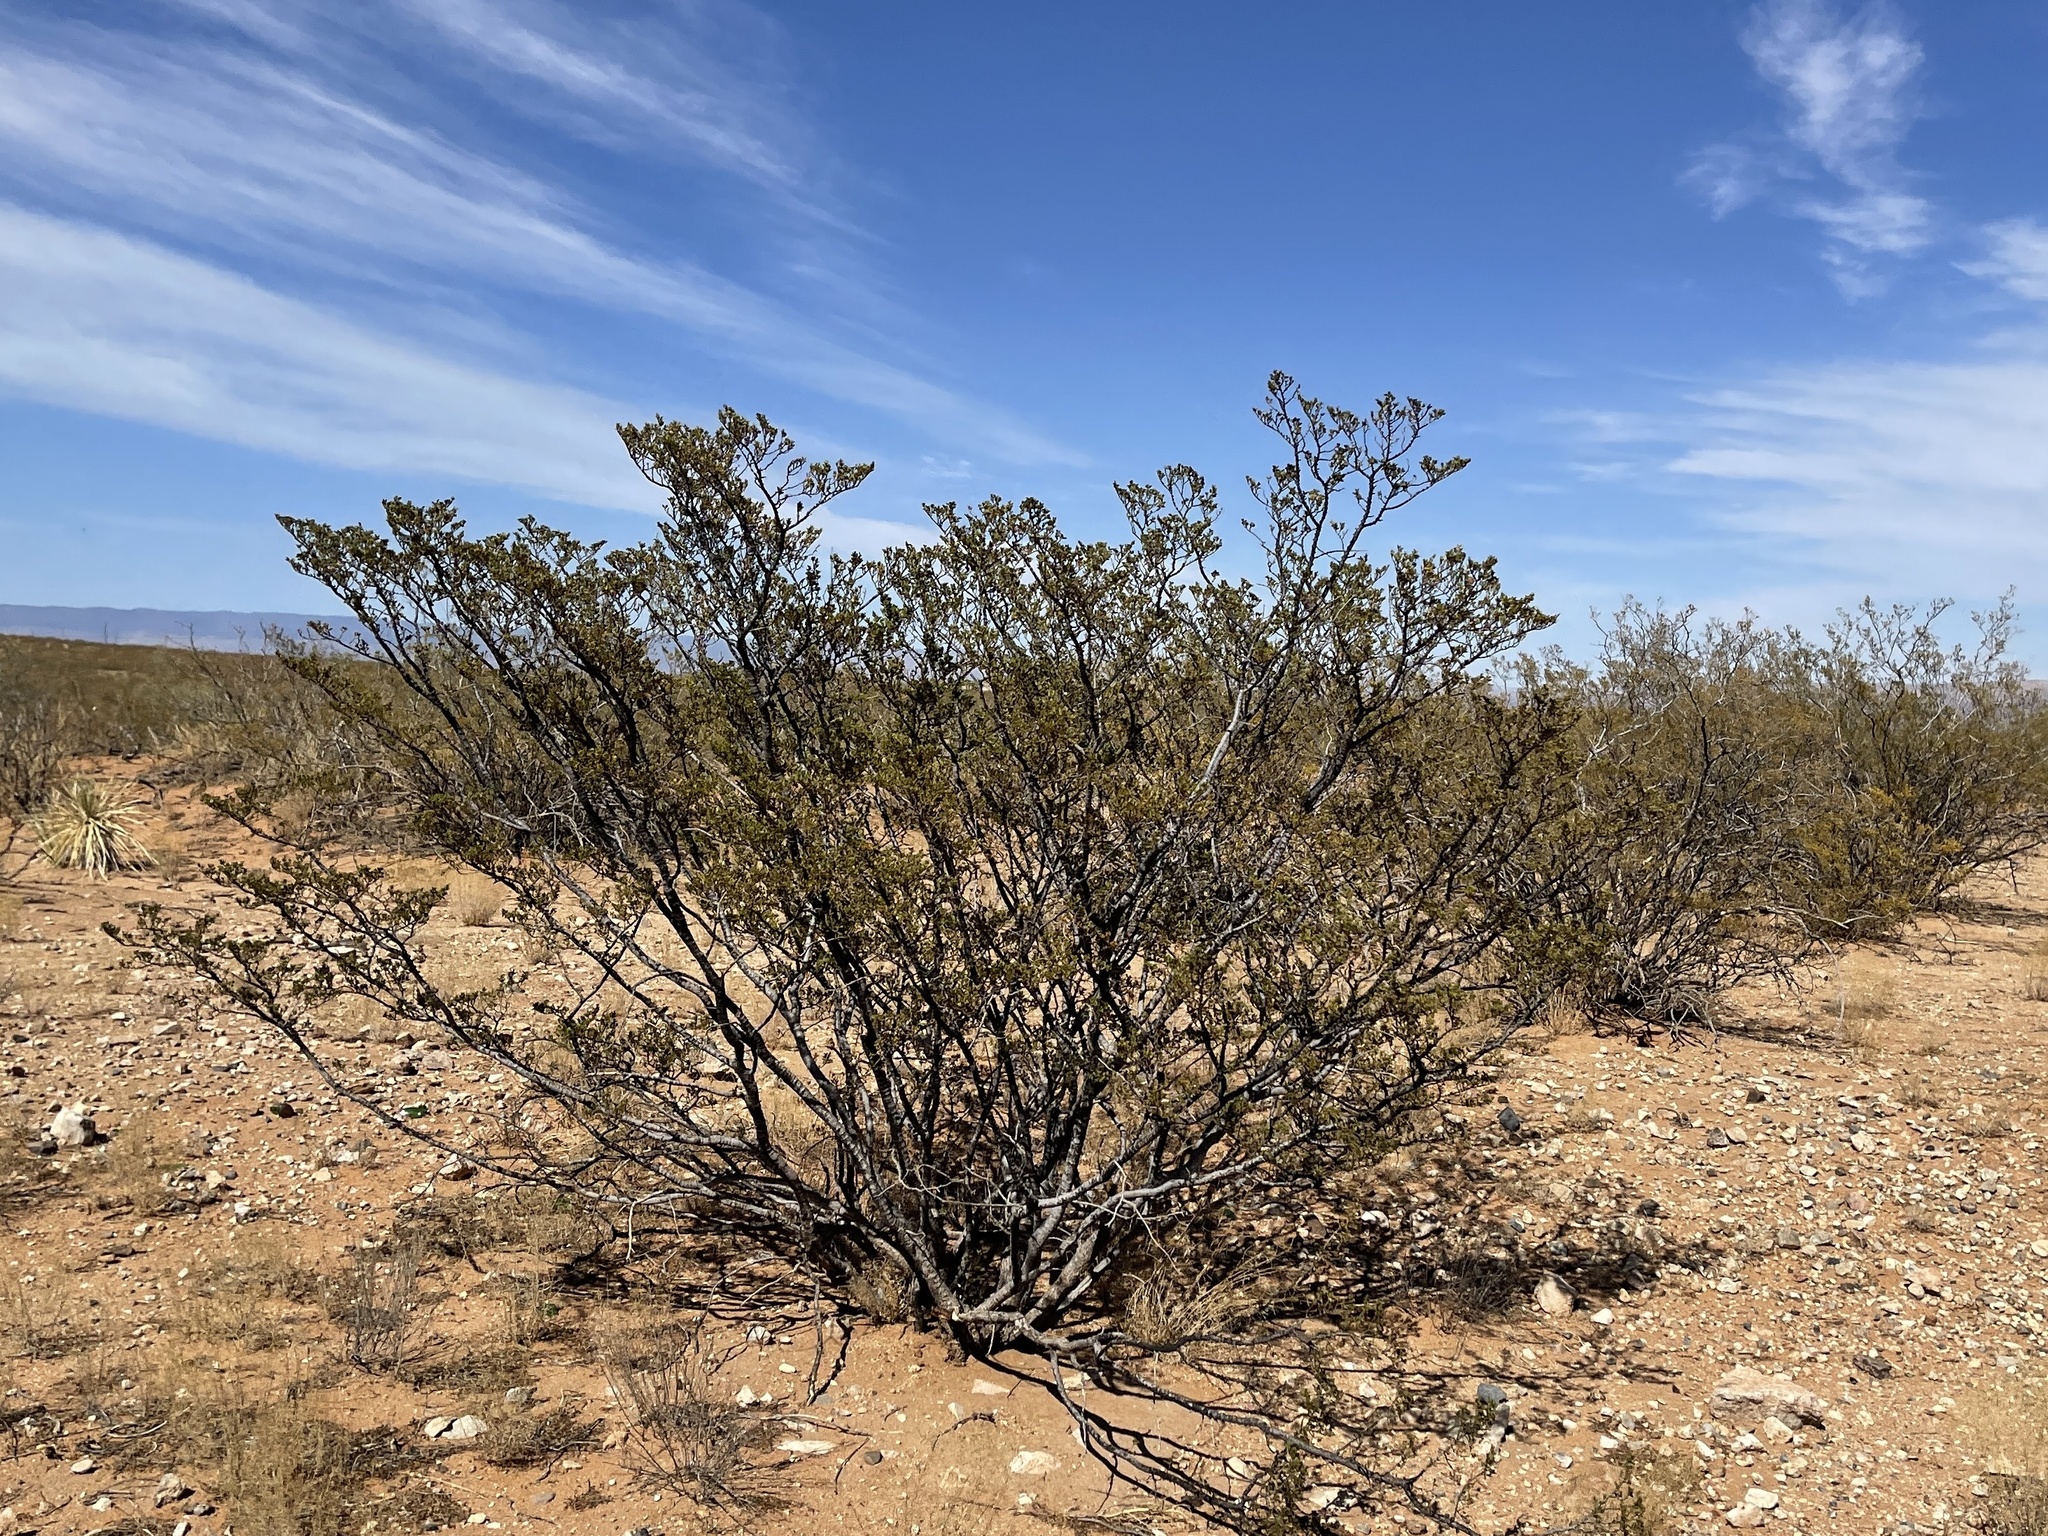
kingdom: Plantae
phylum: Tracheophyta
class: Magnoliopsida
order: Zygophyllales
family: Zygophyllaceae
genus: Larrea
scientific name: Larrea tridentata
